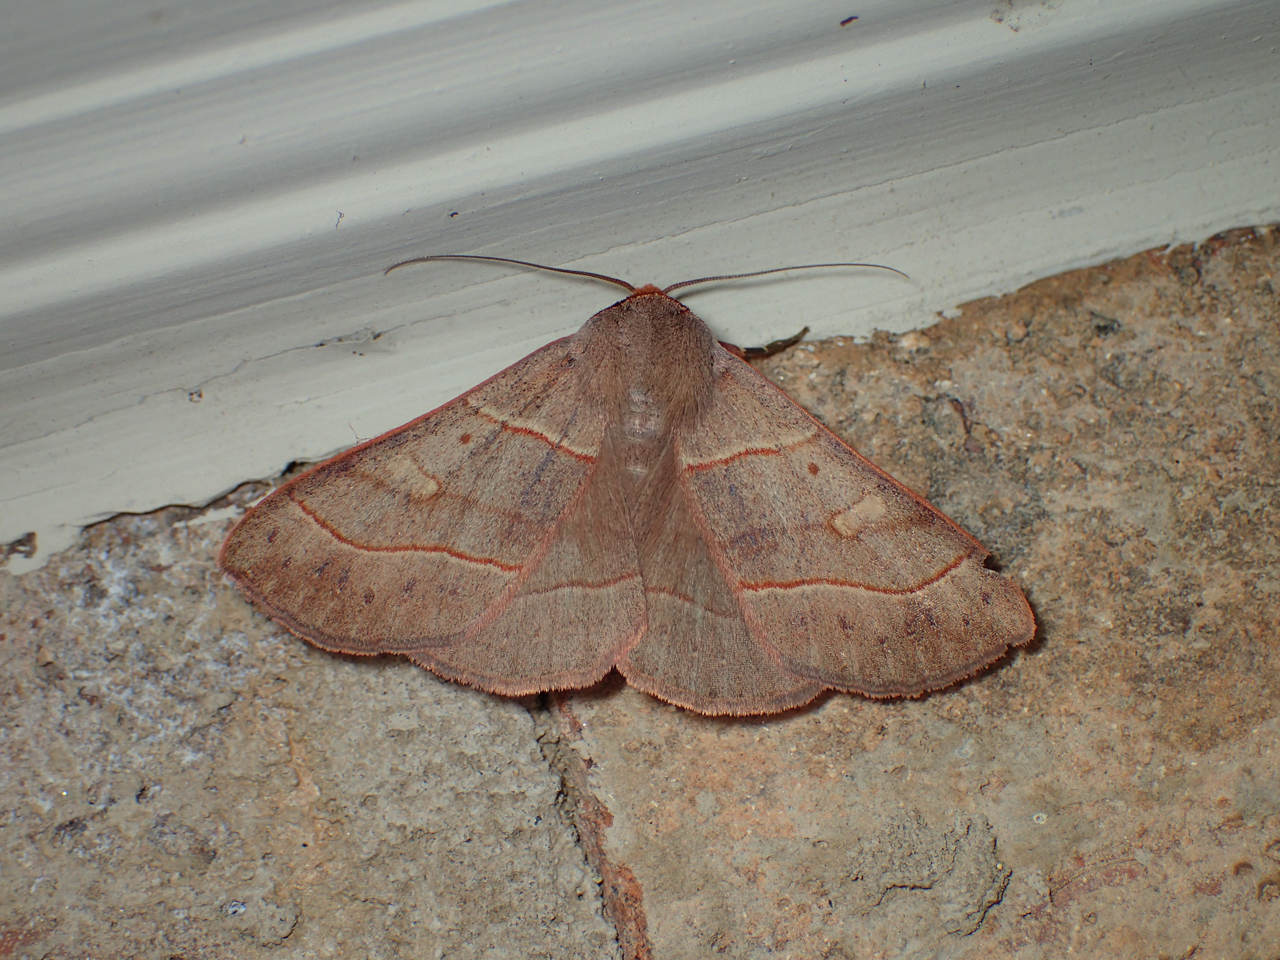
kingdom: Animalia
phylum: Arthropoda
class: Insecta
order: Lepidoptera
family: Erebidae
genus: Panopoda
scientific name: Panopoda rufimargo
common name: Red-lined panopoda moth
